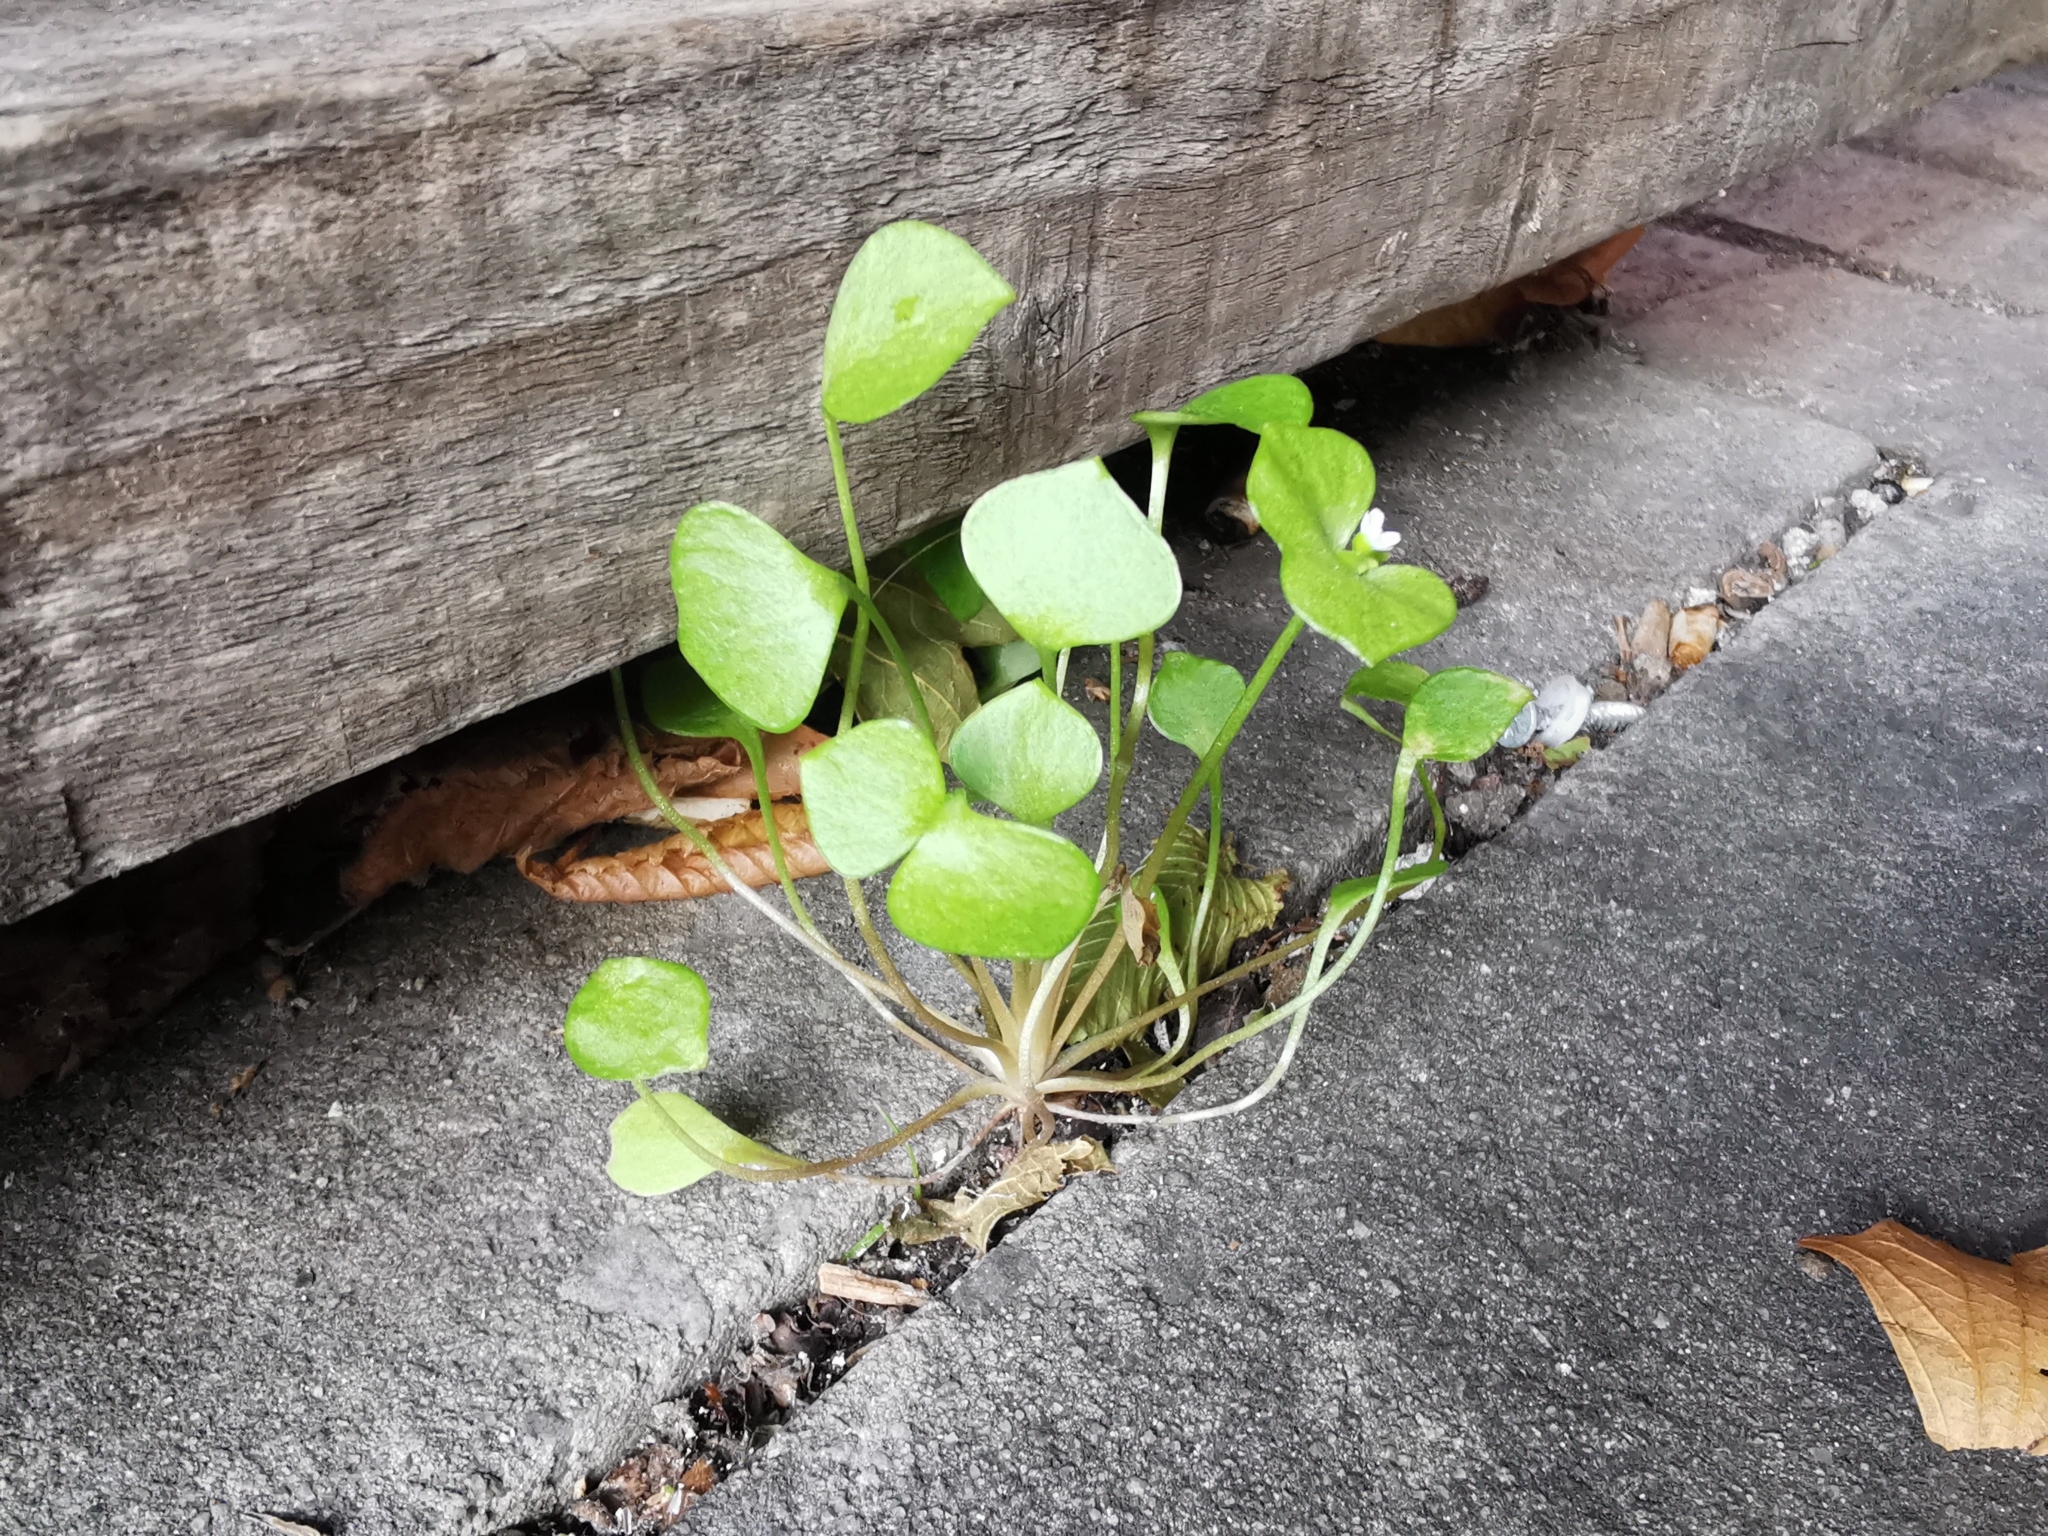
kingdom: Plantae
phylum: Tracheophyta
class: Magnoliopsida
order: Caryophyllales
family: Montiaceae
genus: Claytonia
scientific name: Claytonia perfoliata
